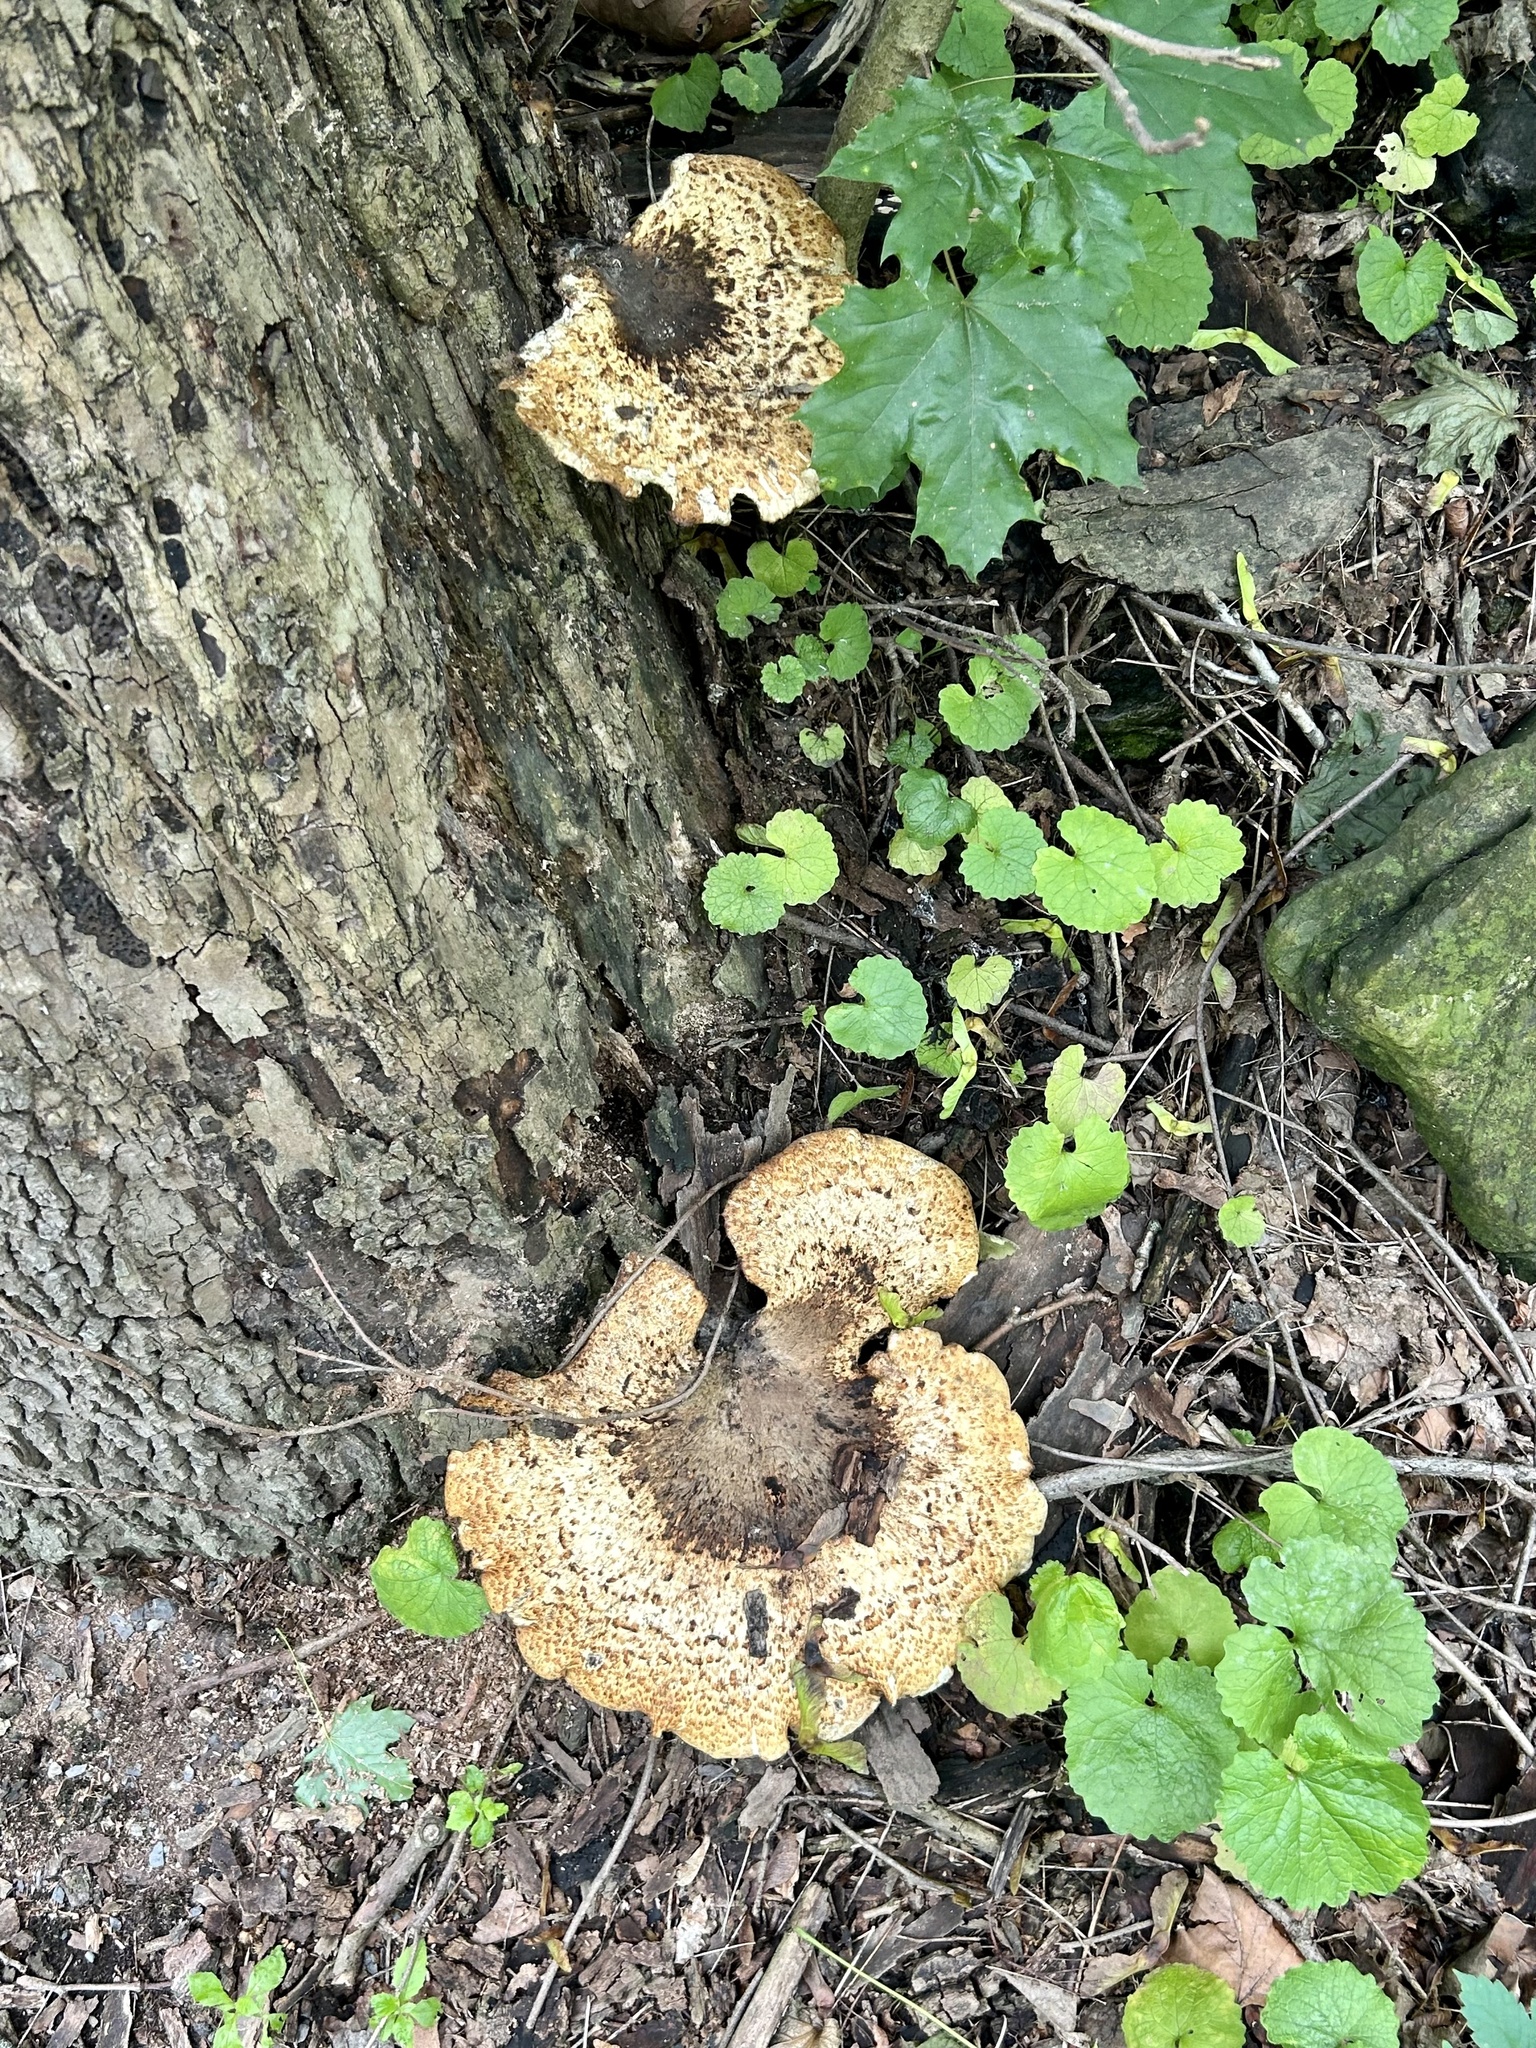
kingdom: Fungi
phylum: Basidiomycota
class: Agaricomycetes
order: Polyporales
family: Polyporaceae
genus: Cerioporus
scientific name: Cerioporus squamosus
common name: Dryad's saddle
